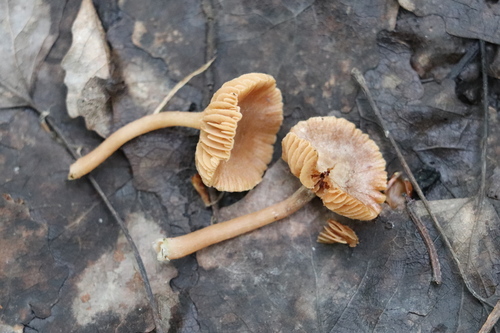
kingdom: Fungi
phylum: Basidiomycota
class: Agaricomycetes
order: Agaricales
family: Tubariaceae
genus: Tubaria
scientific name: Tubaria furfuracea
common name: Scurfy twiglet
